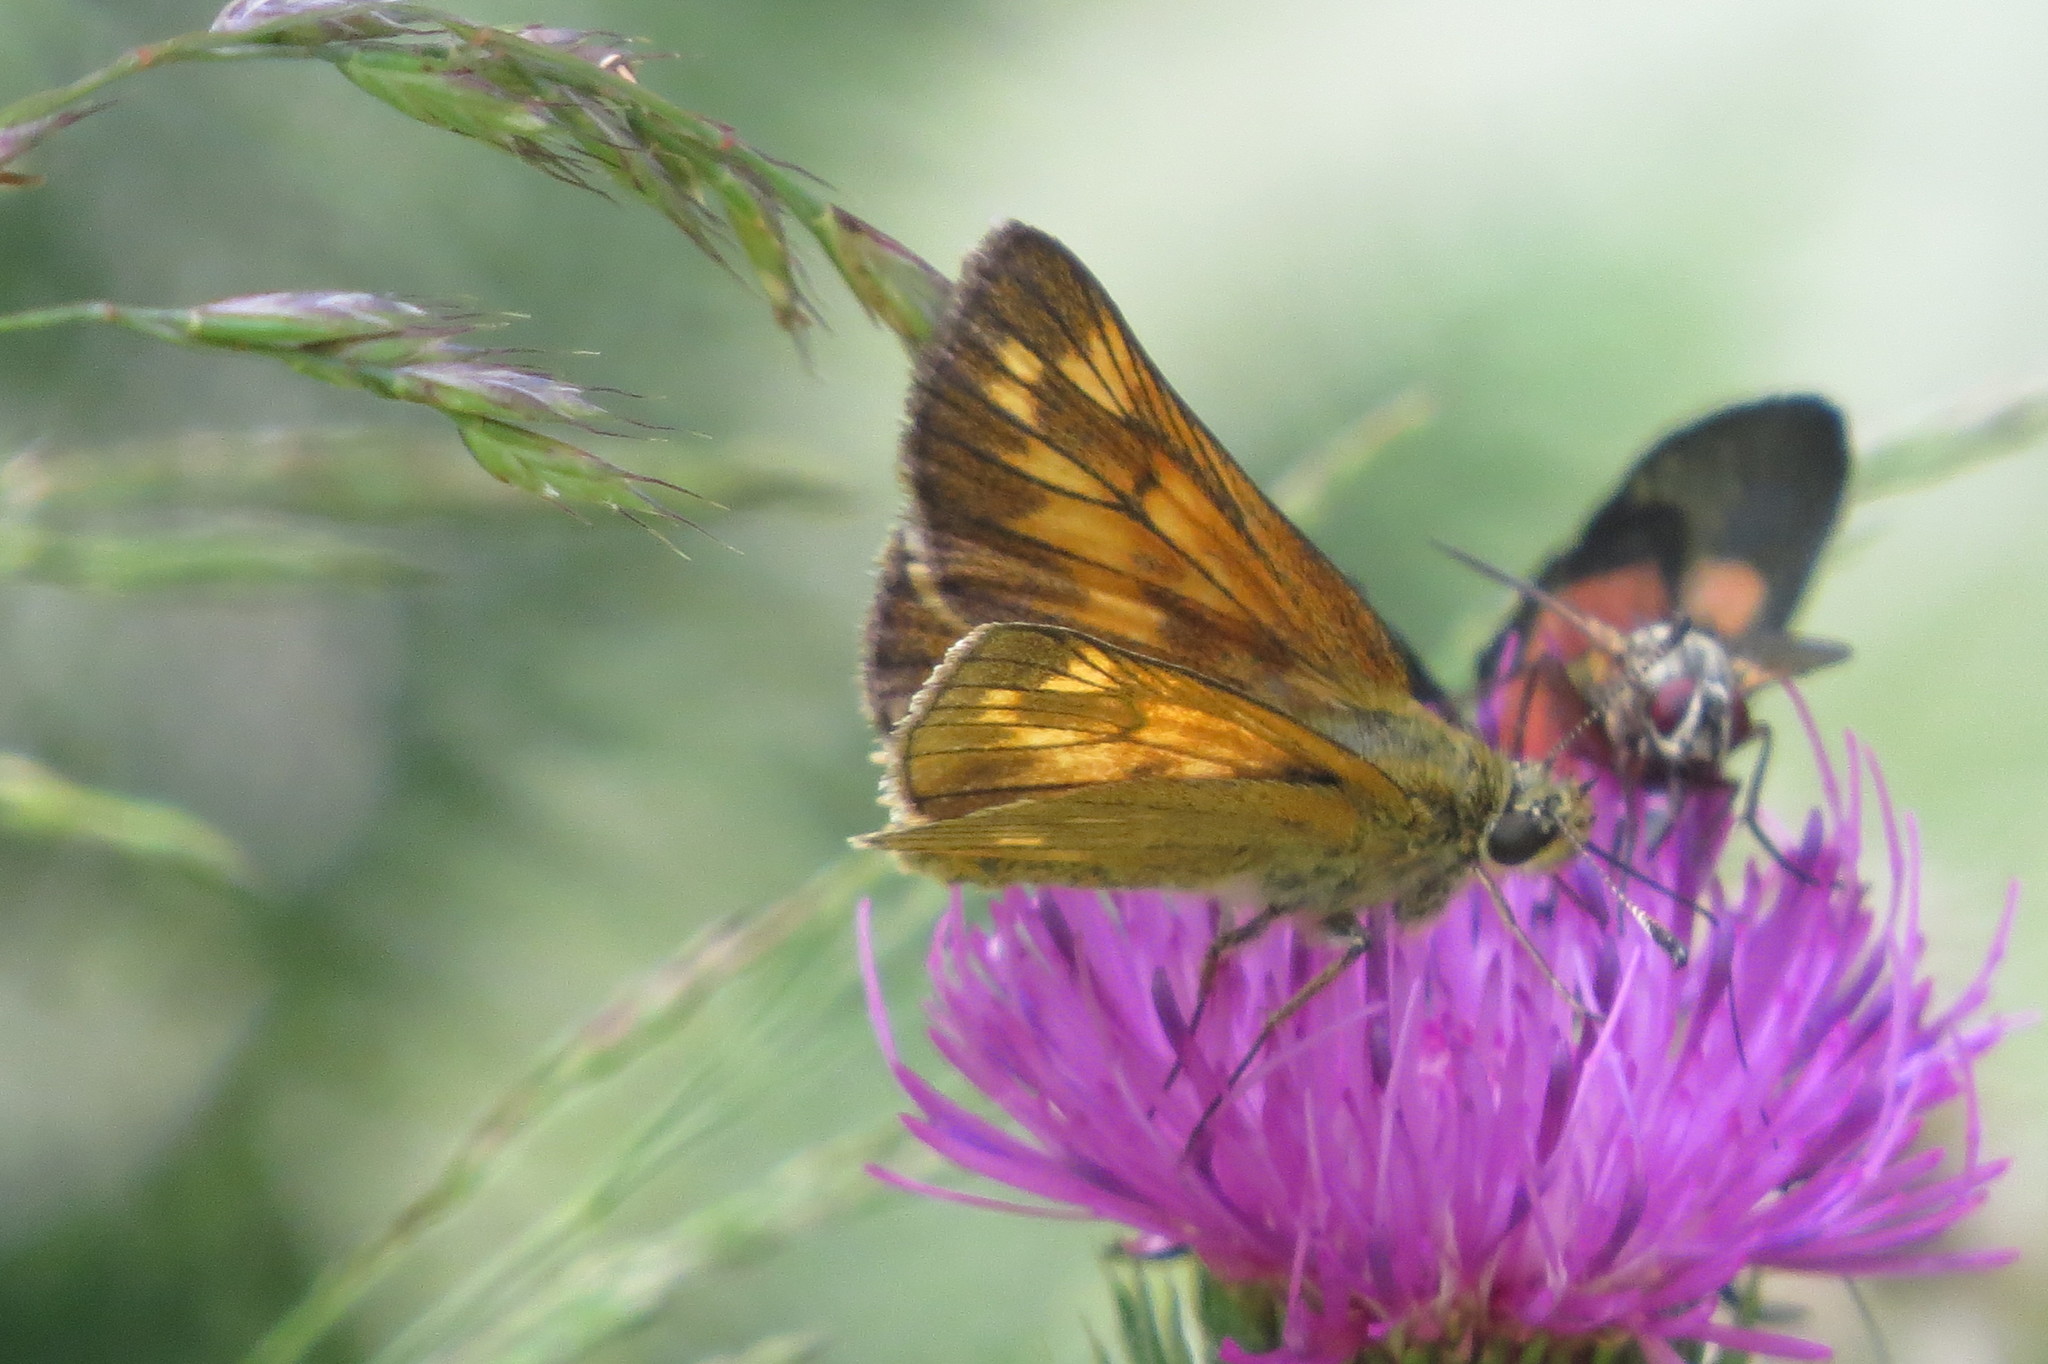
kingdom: Animalia
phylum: Arthropoda
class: Insecta
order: Lepidoptera
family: Hesperiidae
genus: Ochlodes
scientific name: Ochlodes venata
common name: Large skipper
